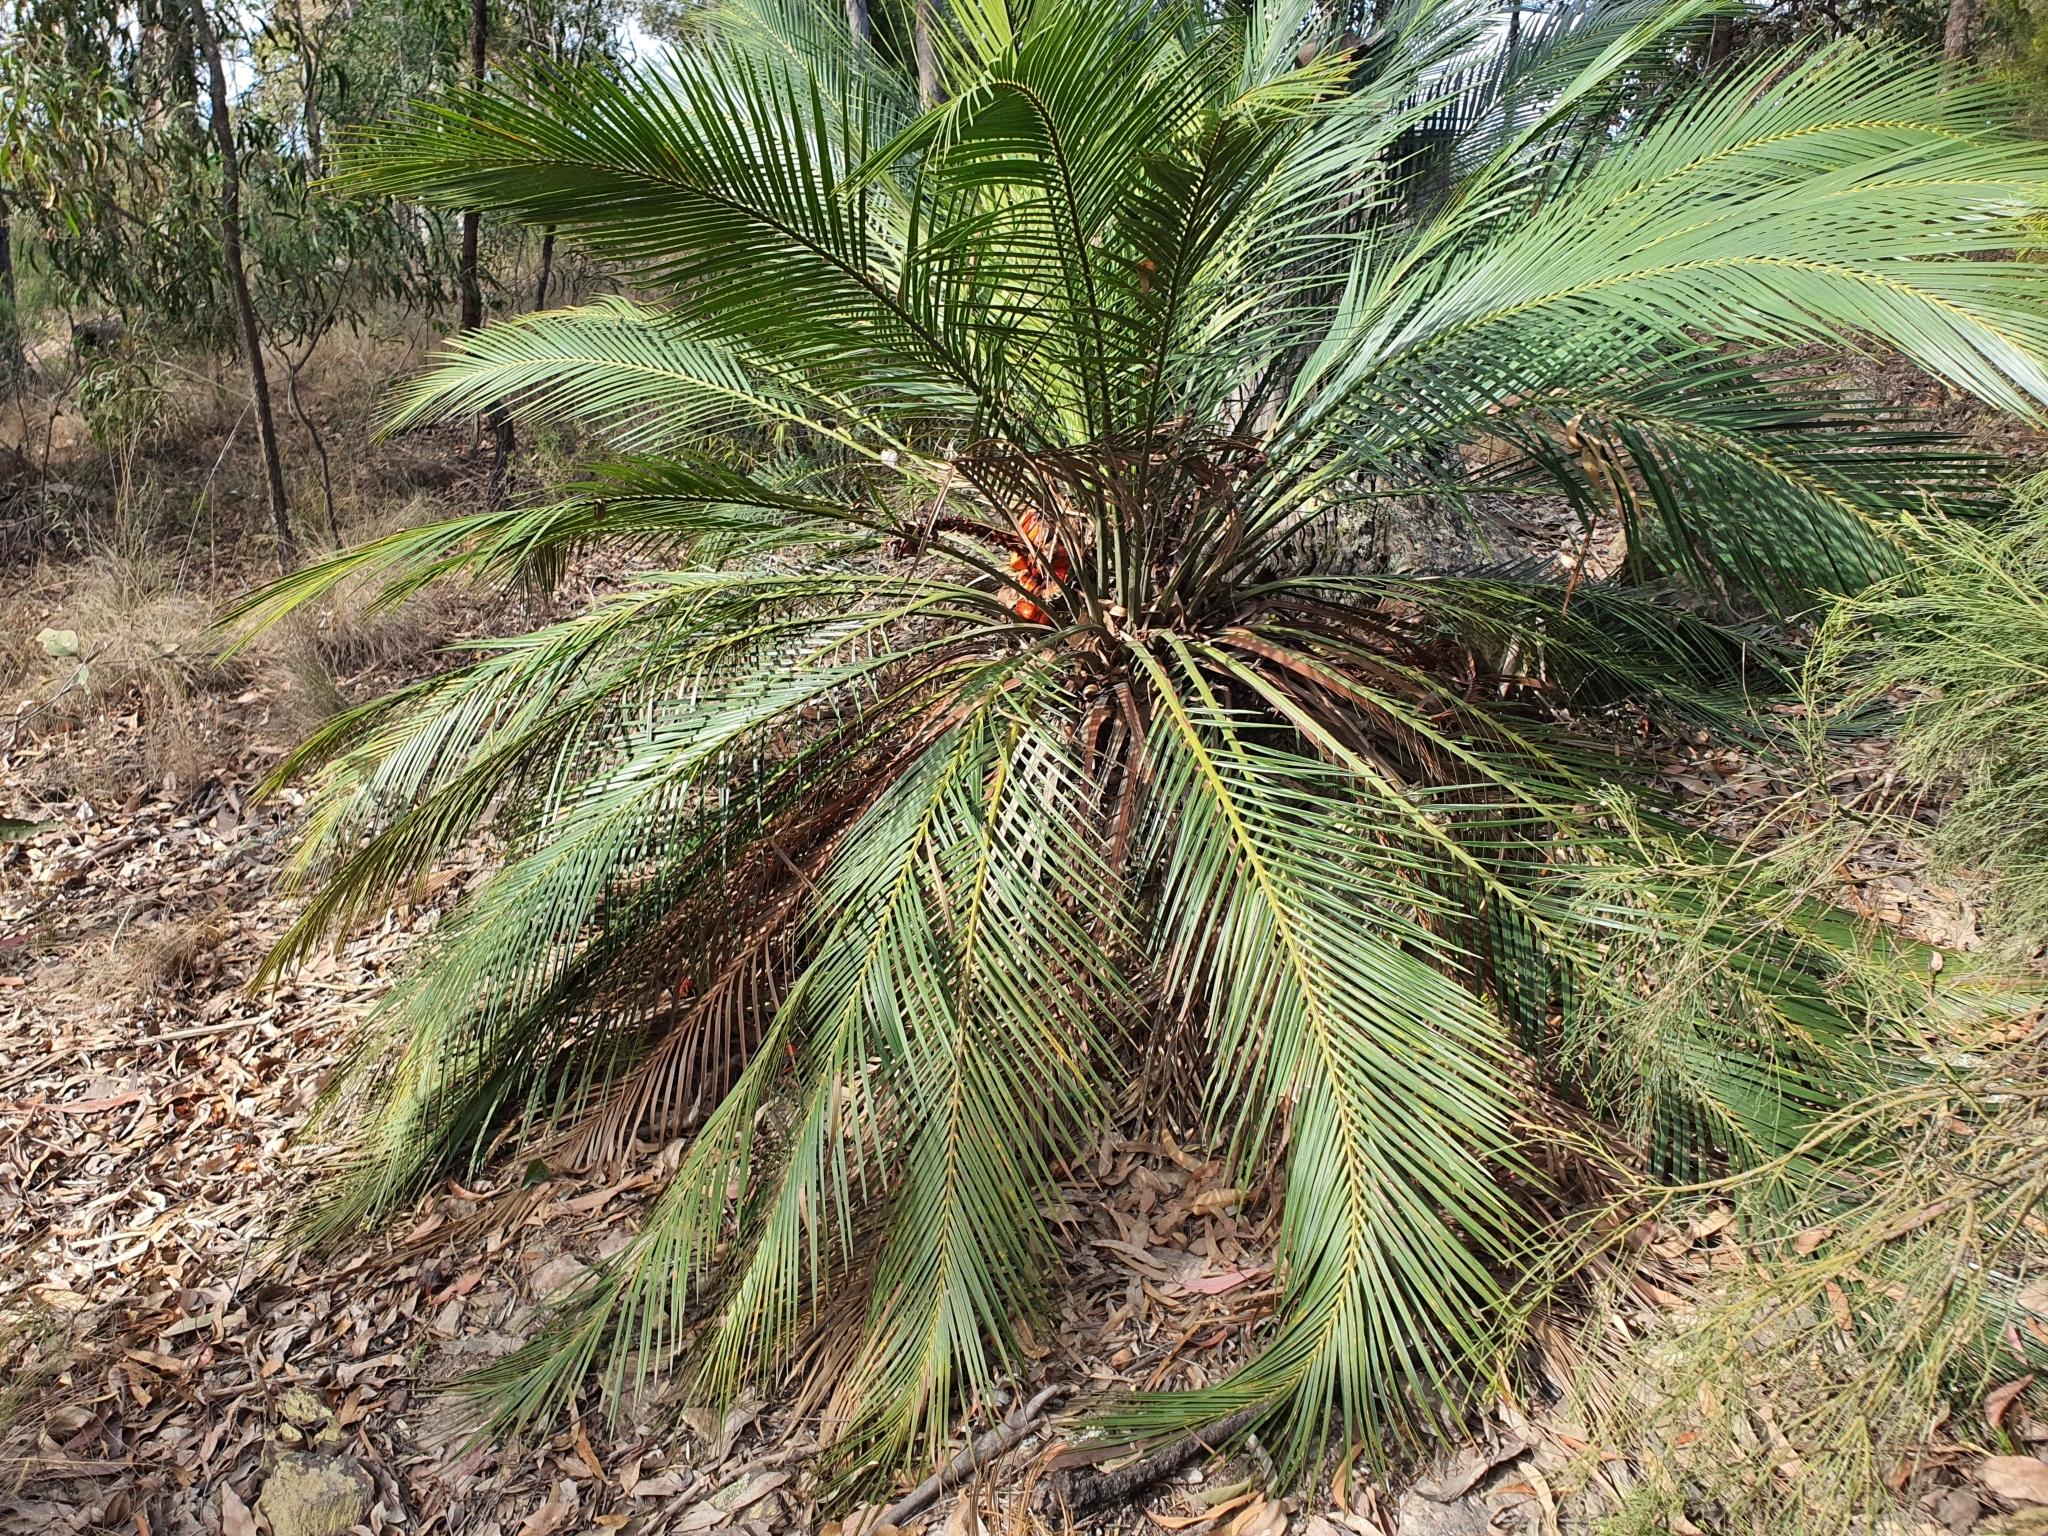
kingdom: Plantae
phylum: Tracheophyta
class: Cycadopsida
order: Cycadales
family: Zamiaceae
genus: Macrozamia
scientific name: Macrozamia communis
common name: Burrawong
